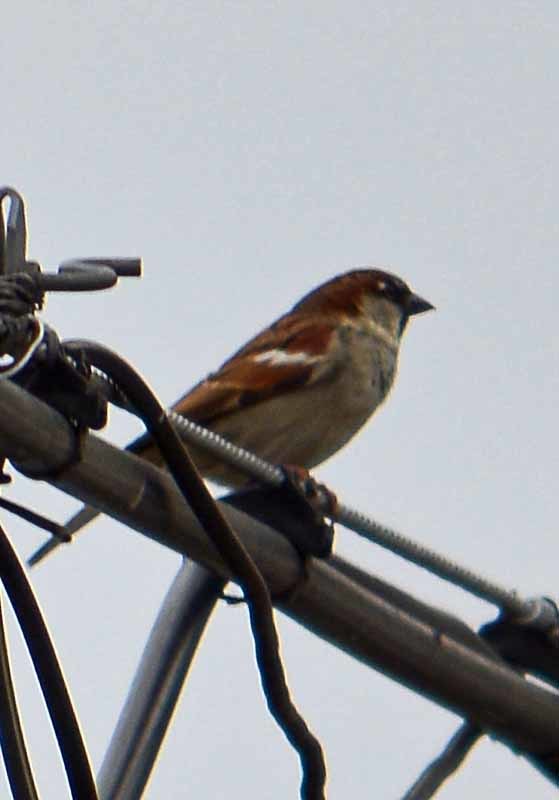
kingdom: Animalia
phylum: Chordata
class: Aves
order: Passeriformes
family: Passeridae
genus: Passer
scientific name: Passer domesticus
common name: House sparrow
